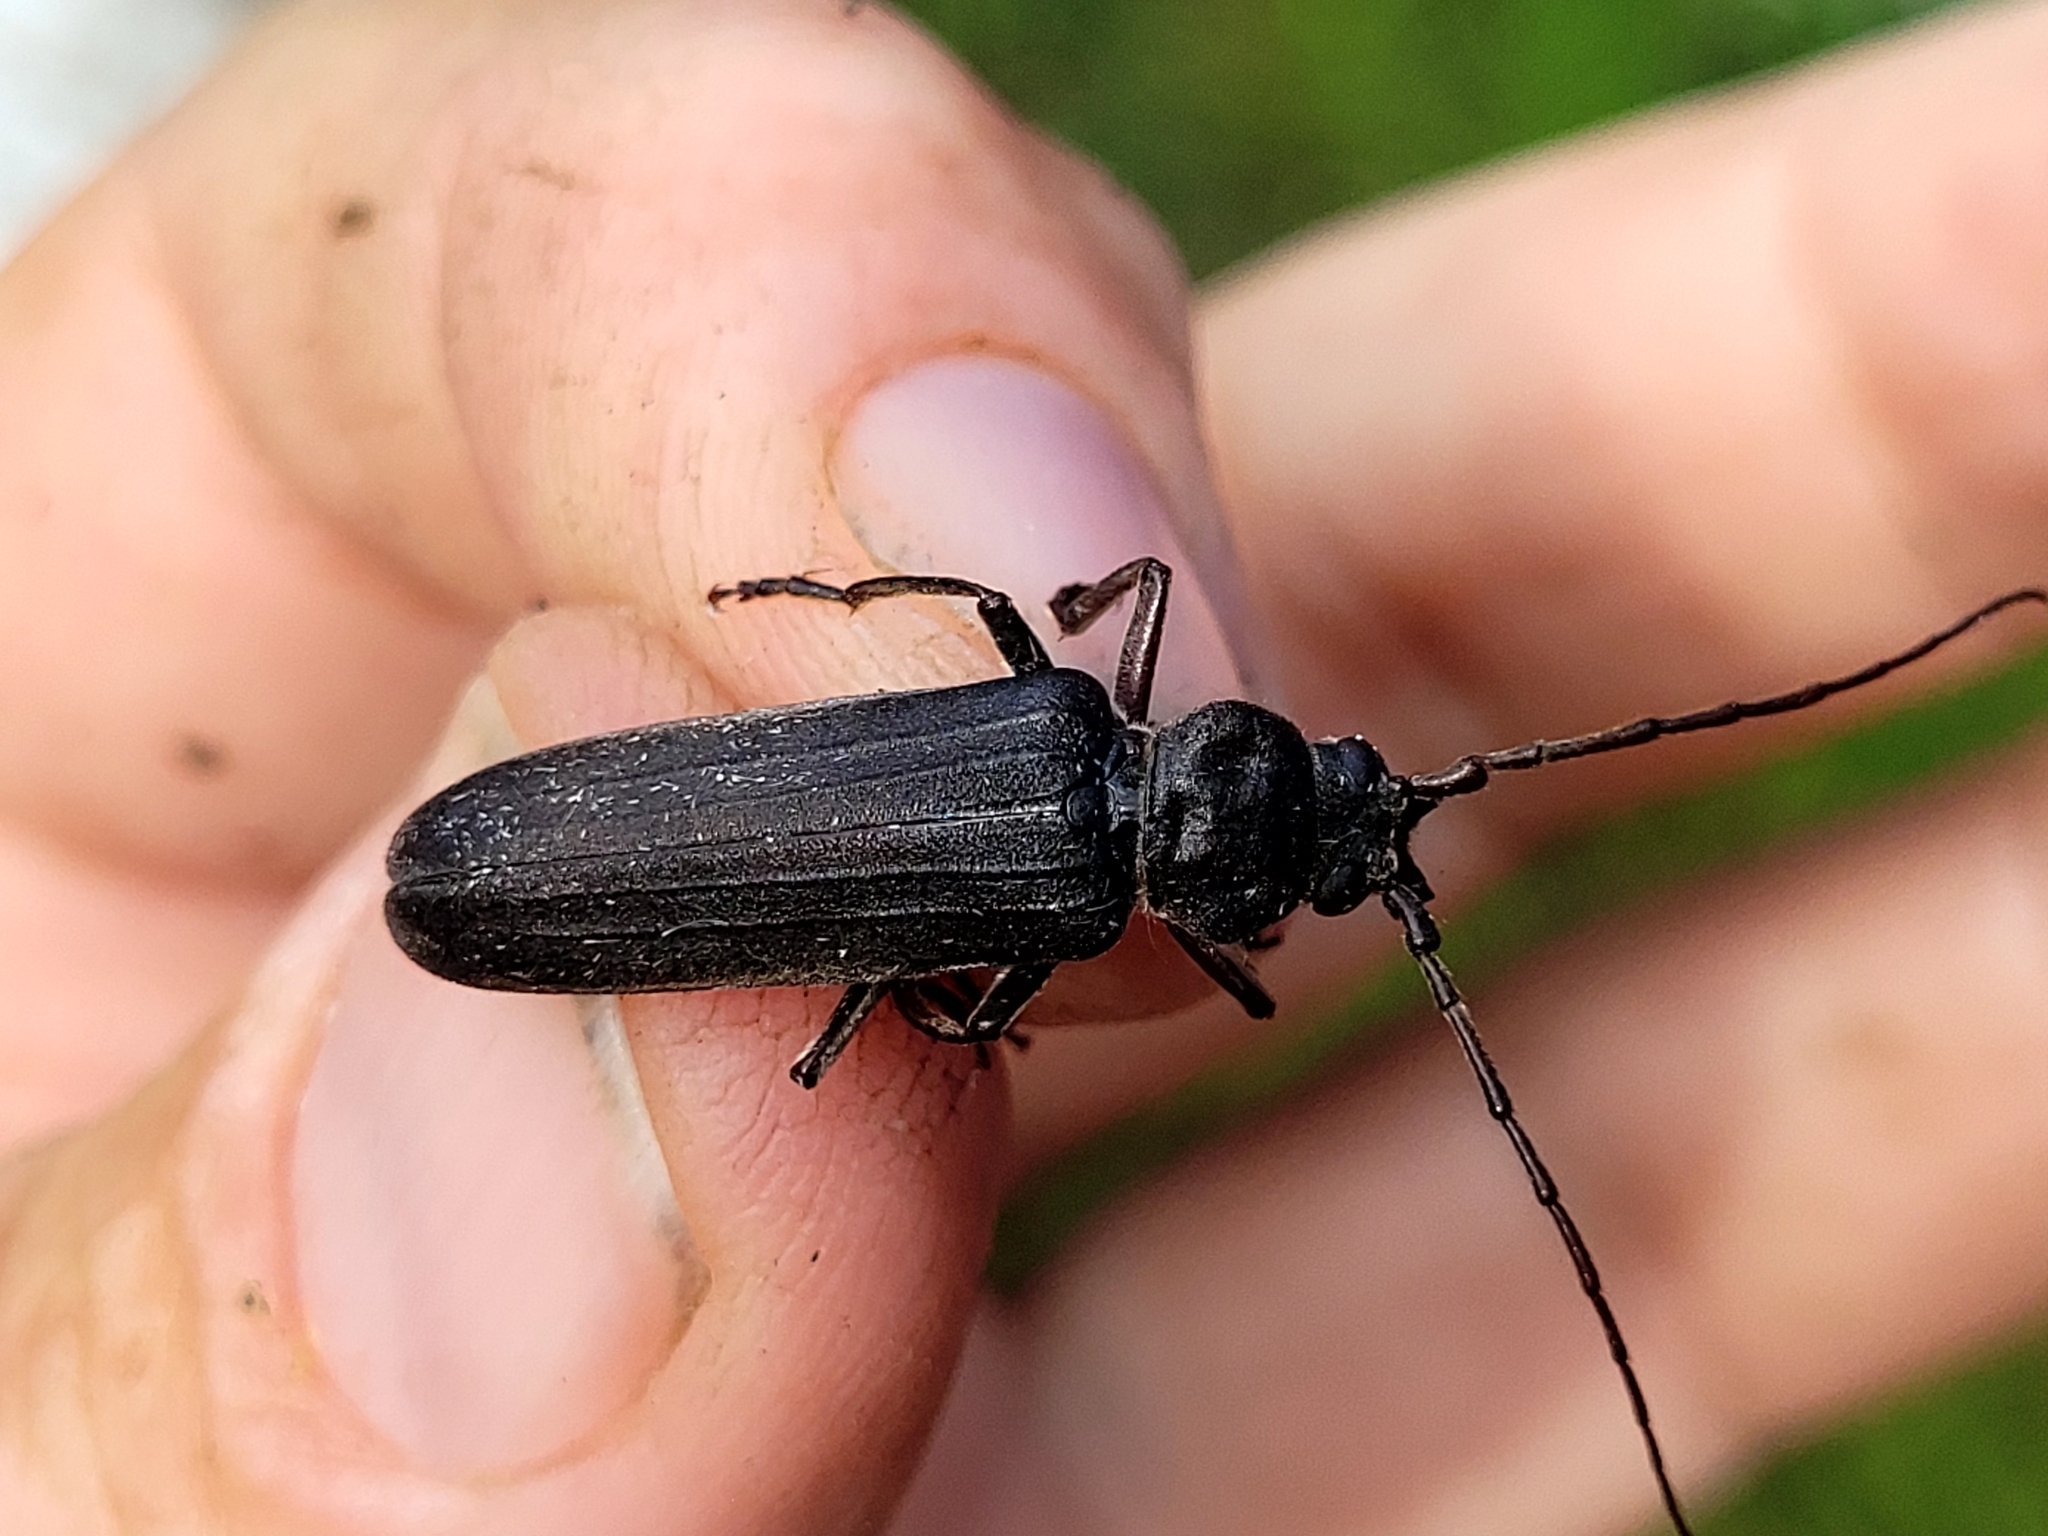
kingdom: Animalia
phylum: Arthropoda
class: Insecta
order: Coleoptera
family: Cerambycidae
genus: Arhopalus
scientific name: Arhopalus productus
